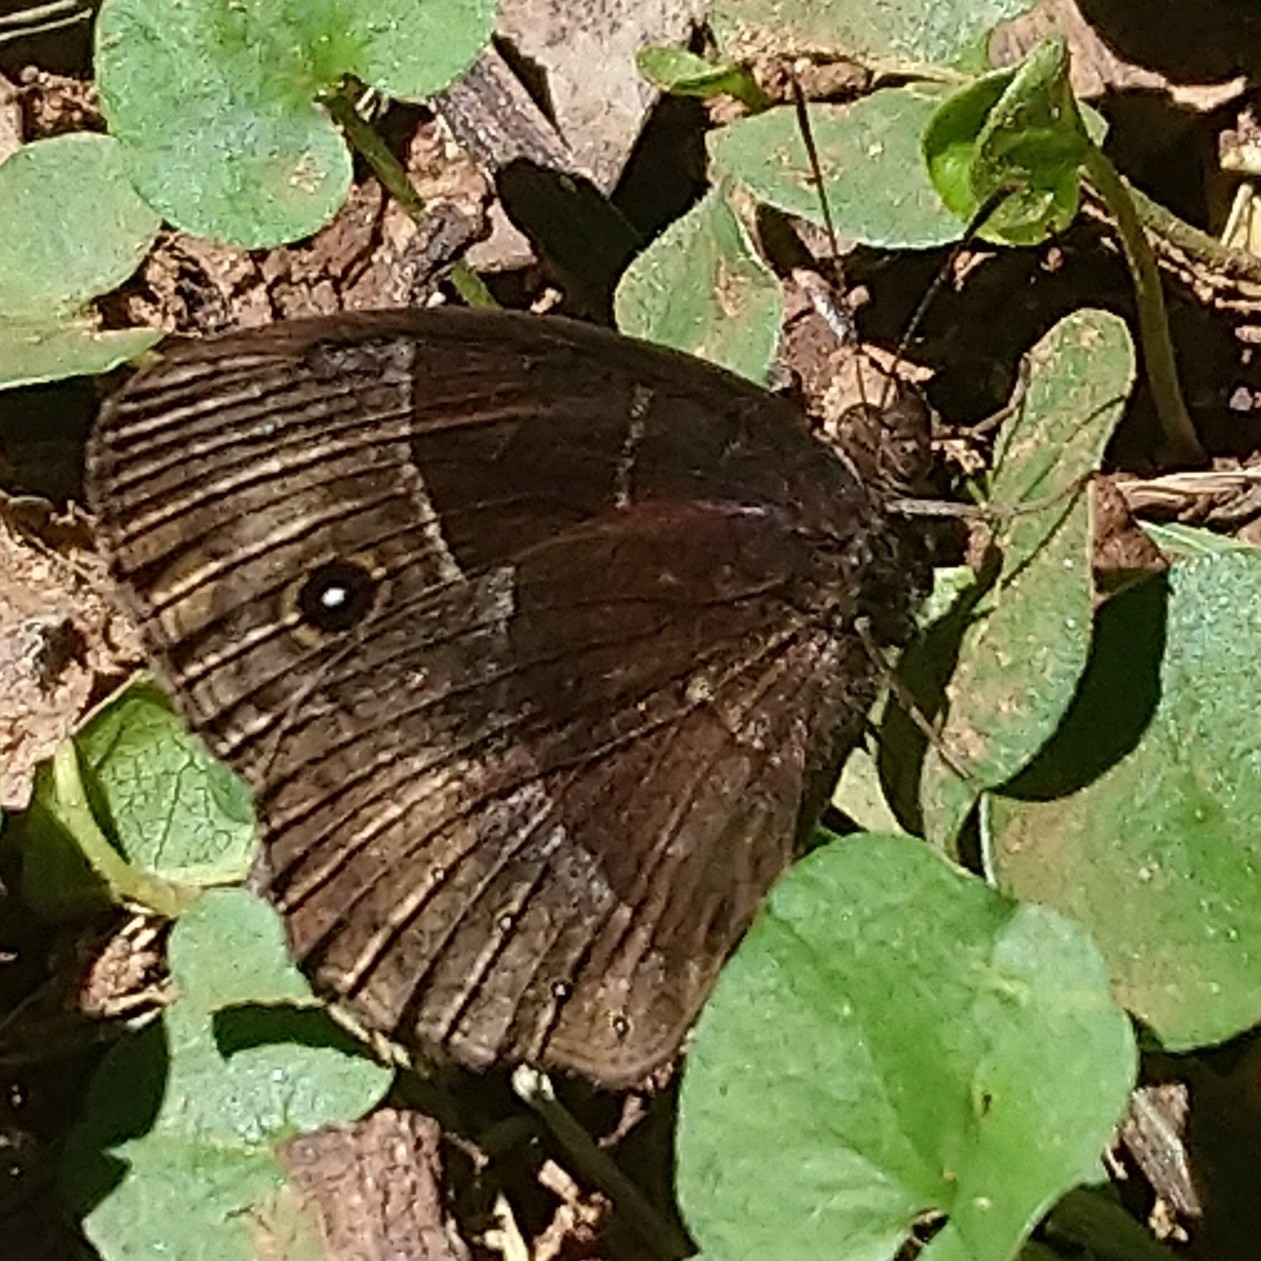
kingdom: Animalia
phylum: Arthropoda
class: Insecta
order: Lepidoptera
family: Nymphalidae
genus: Mycalesis
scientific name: Mycalesis rhacotis
